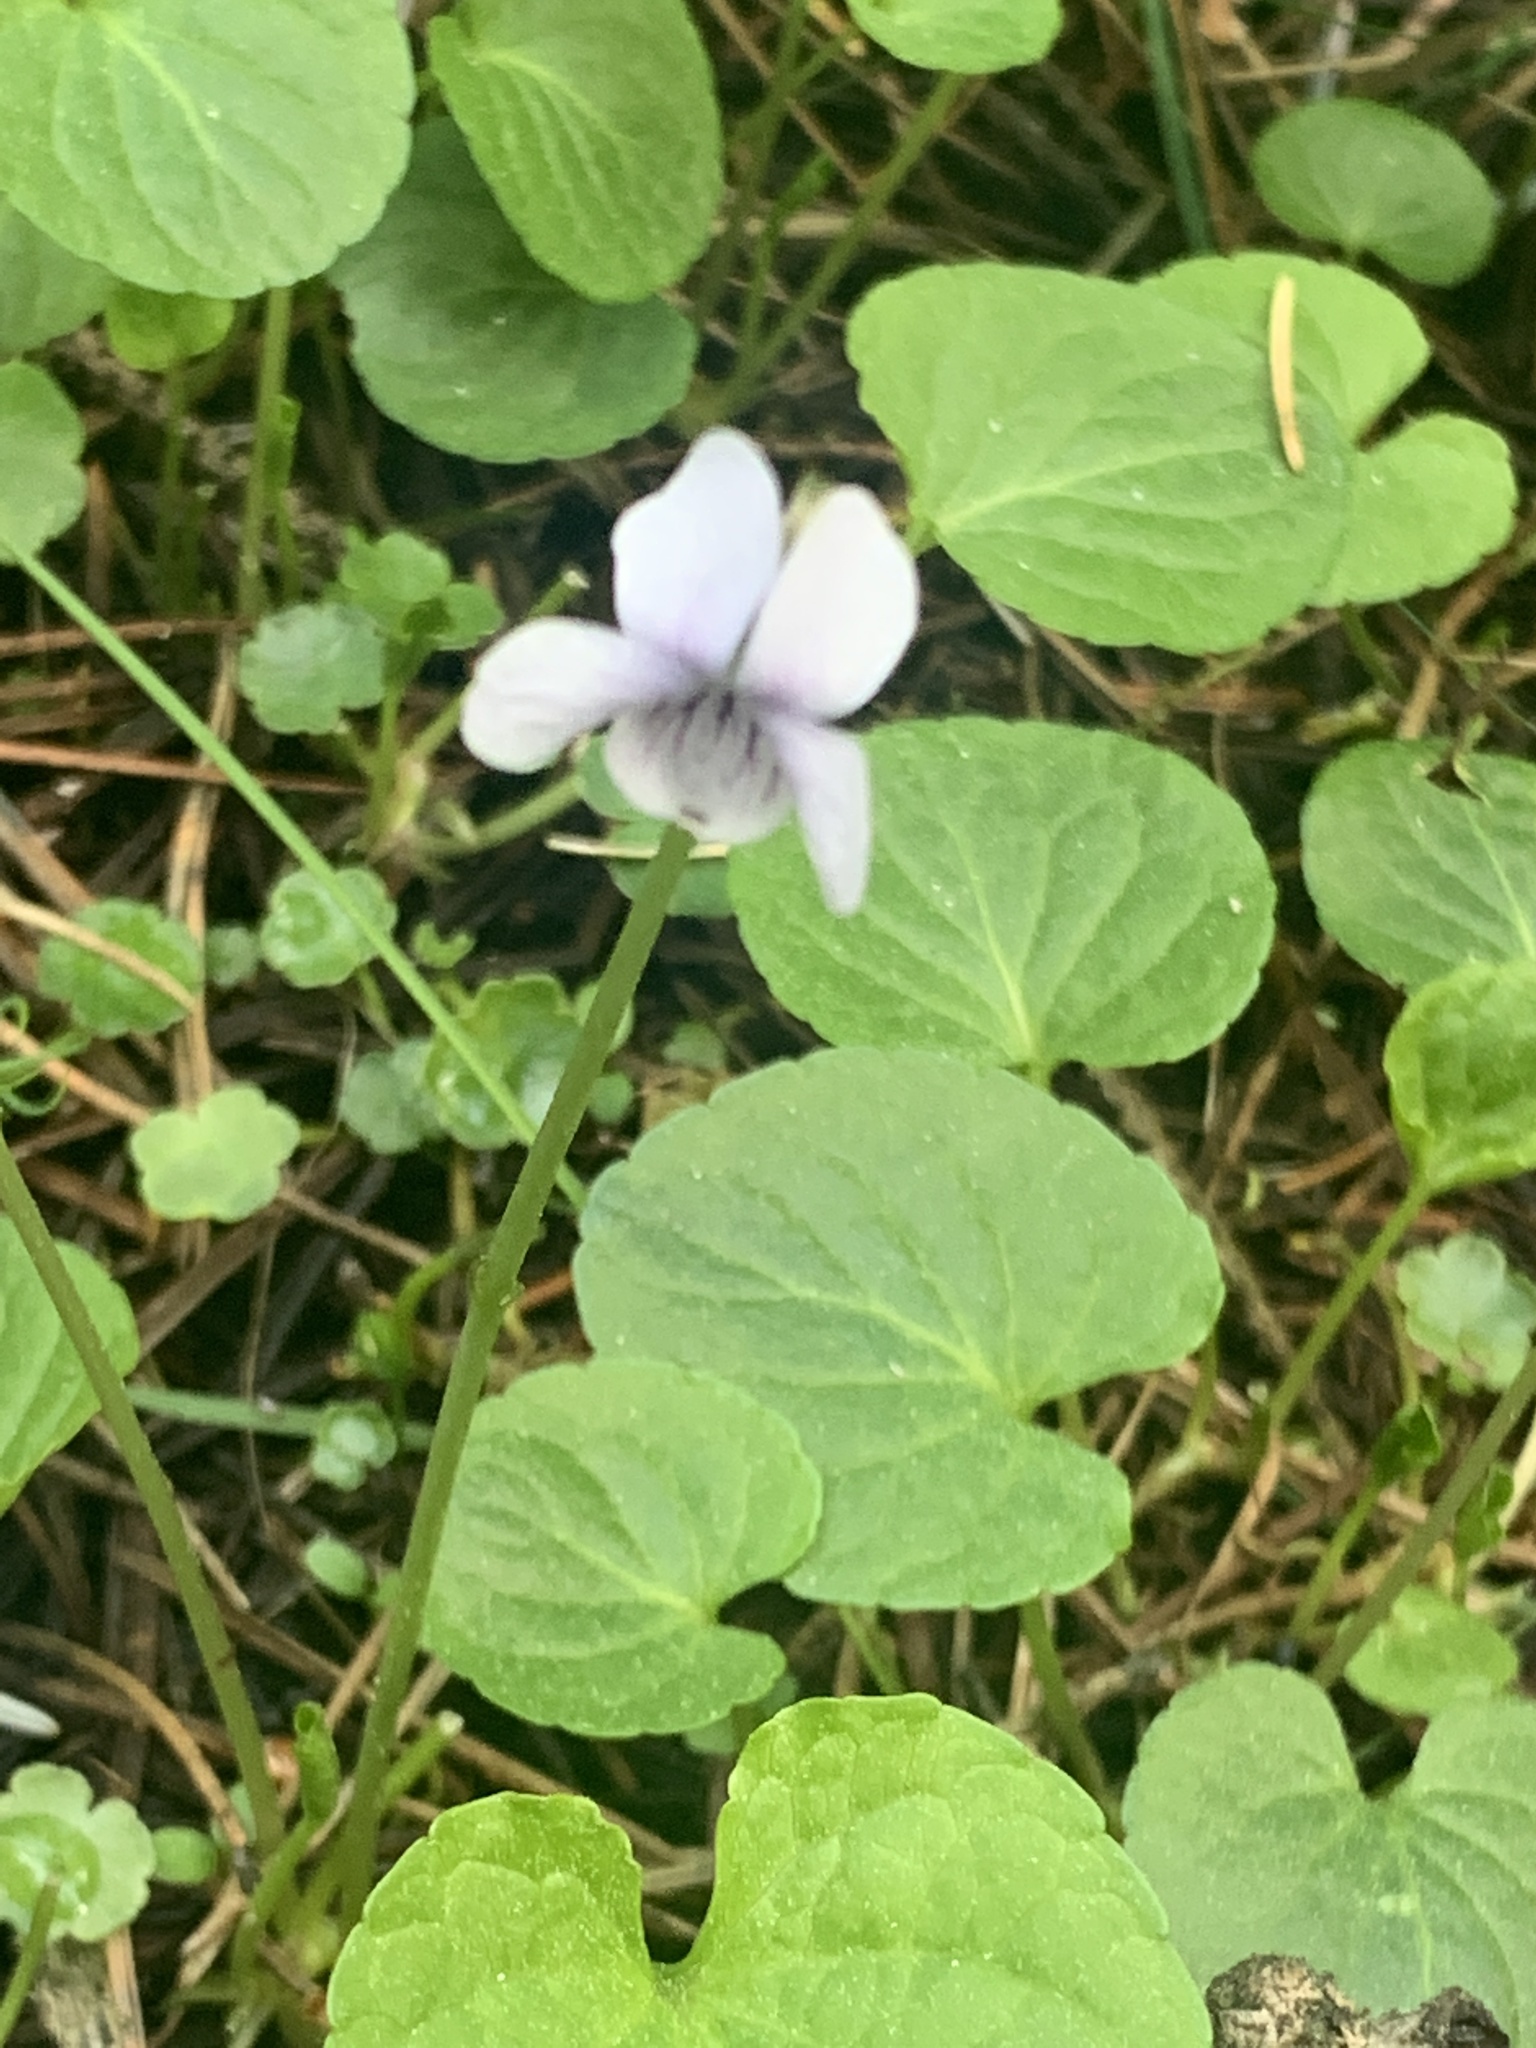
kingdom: Plantae
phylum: Tracheophyta
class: Magnoliopsida
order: Malpighiales
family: Violaceae
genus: Viola
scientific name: Viola palustris
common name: Marsh violet
